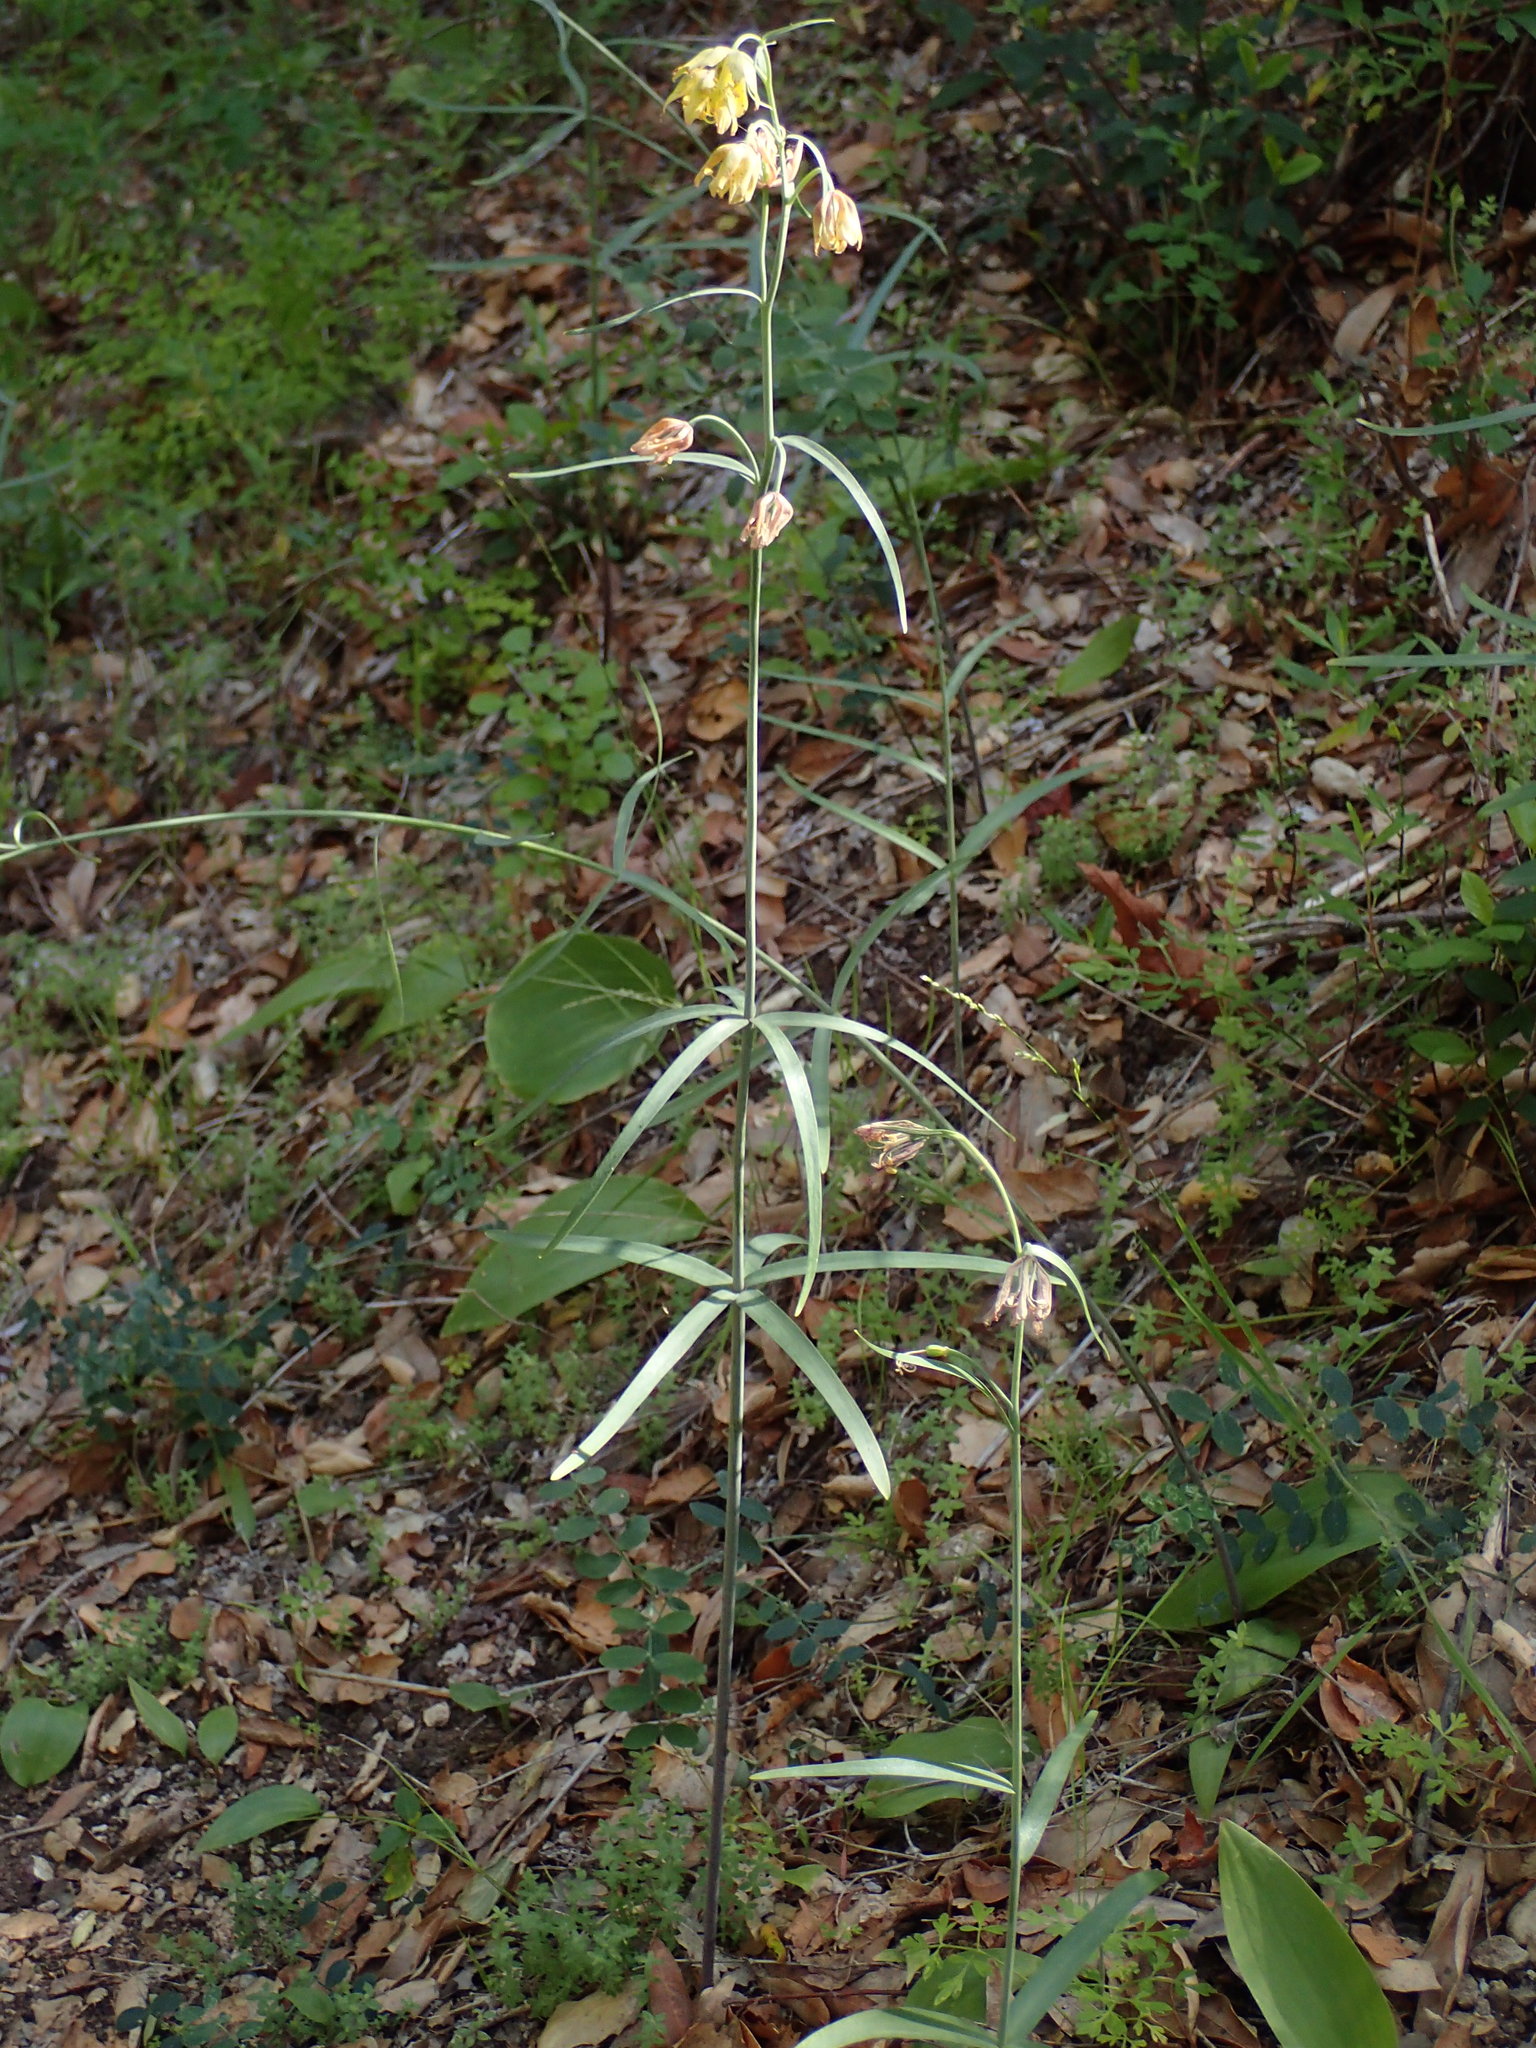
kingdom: Plantae
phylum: Tracheophyta
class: Liliopsida
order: Liliales
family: Liliaceae
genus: Fritillaria
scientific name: Fritillaria ojaiensis
